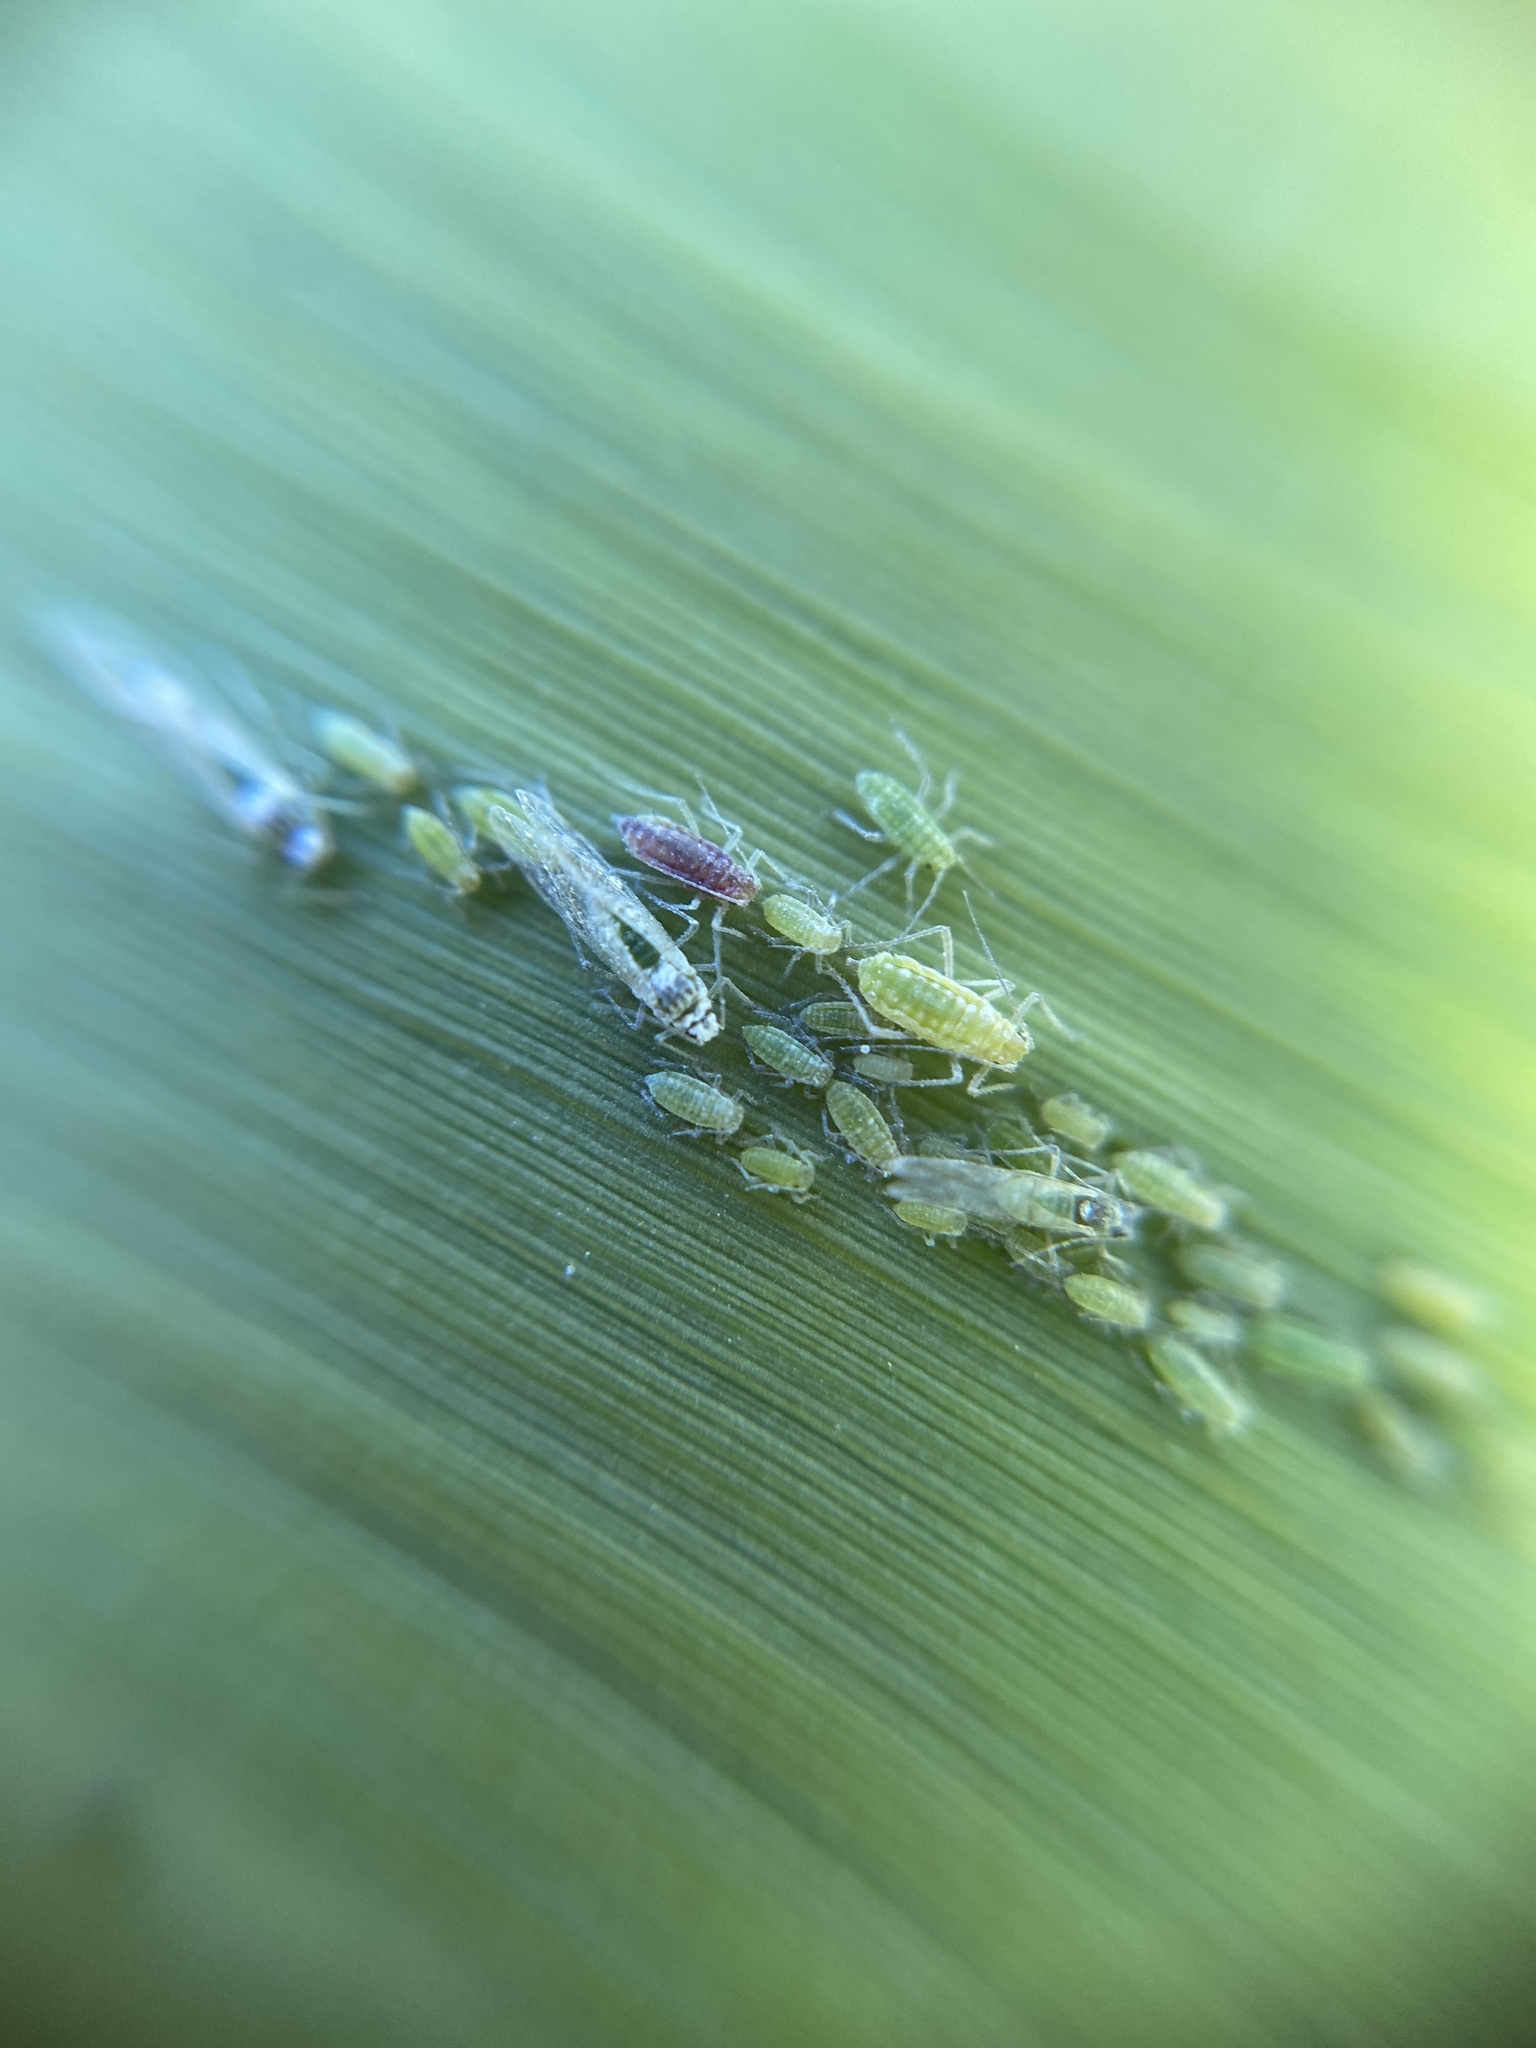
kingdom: Animalia
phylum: Arthropoda
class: Insecta
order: Hemiptera
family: Aphididae
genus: Hyalopterus
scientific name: Hyalopterus
